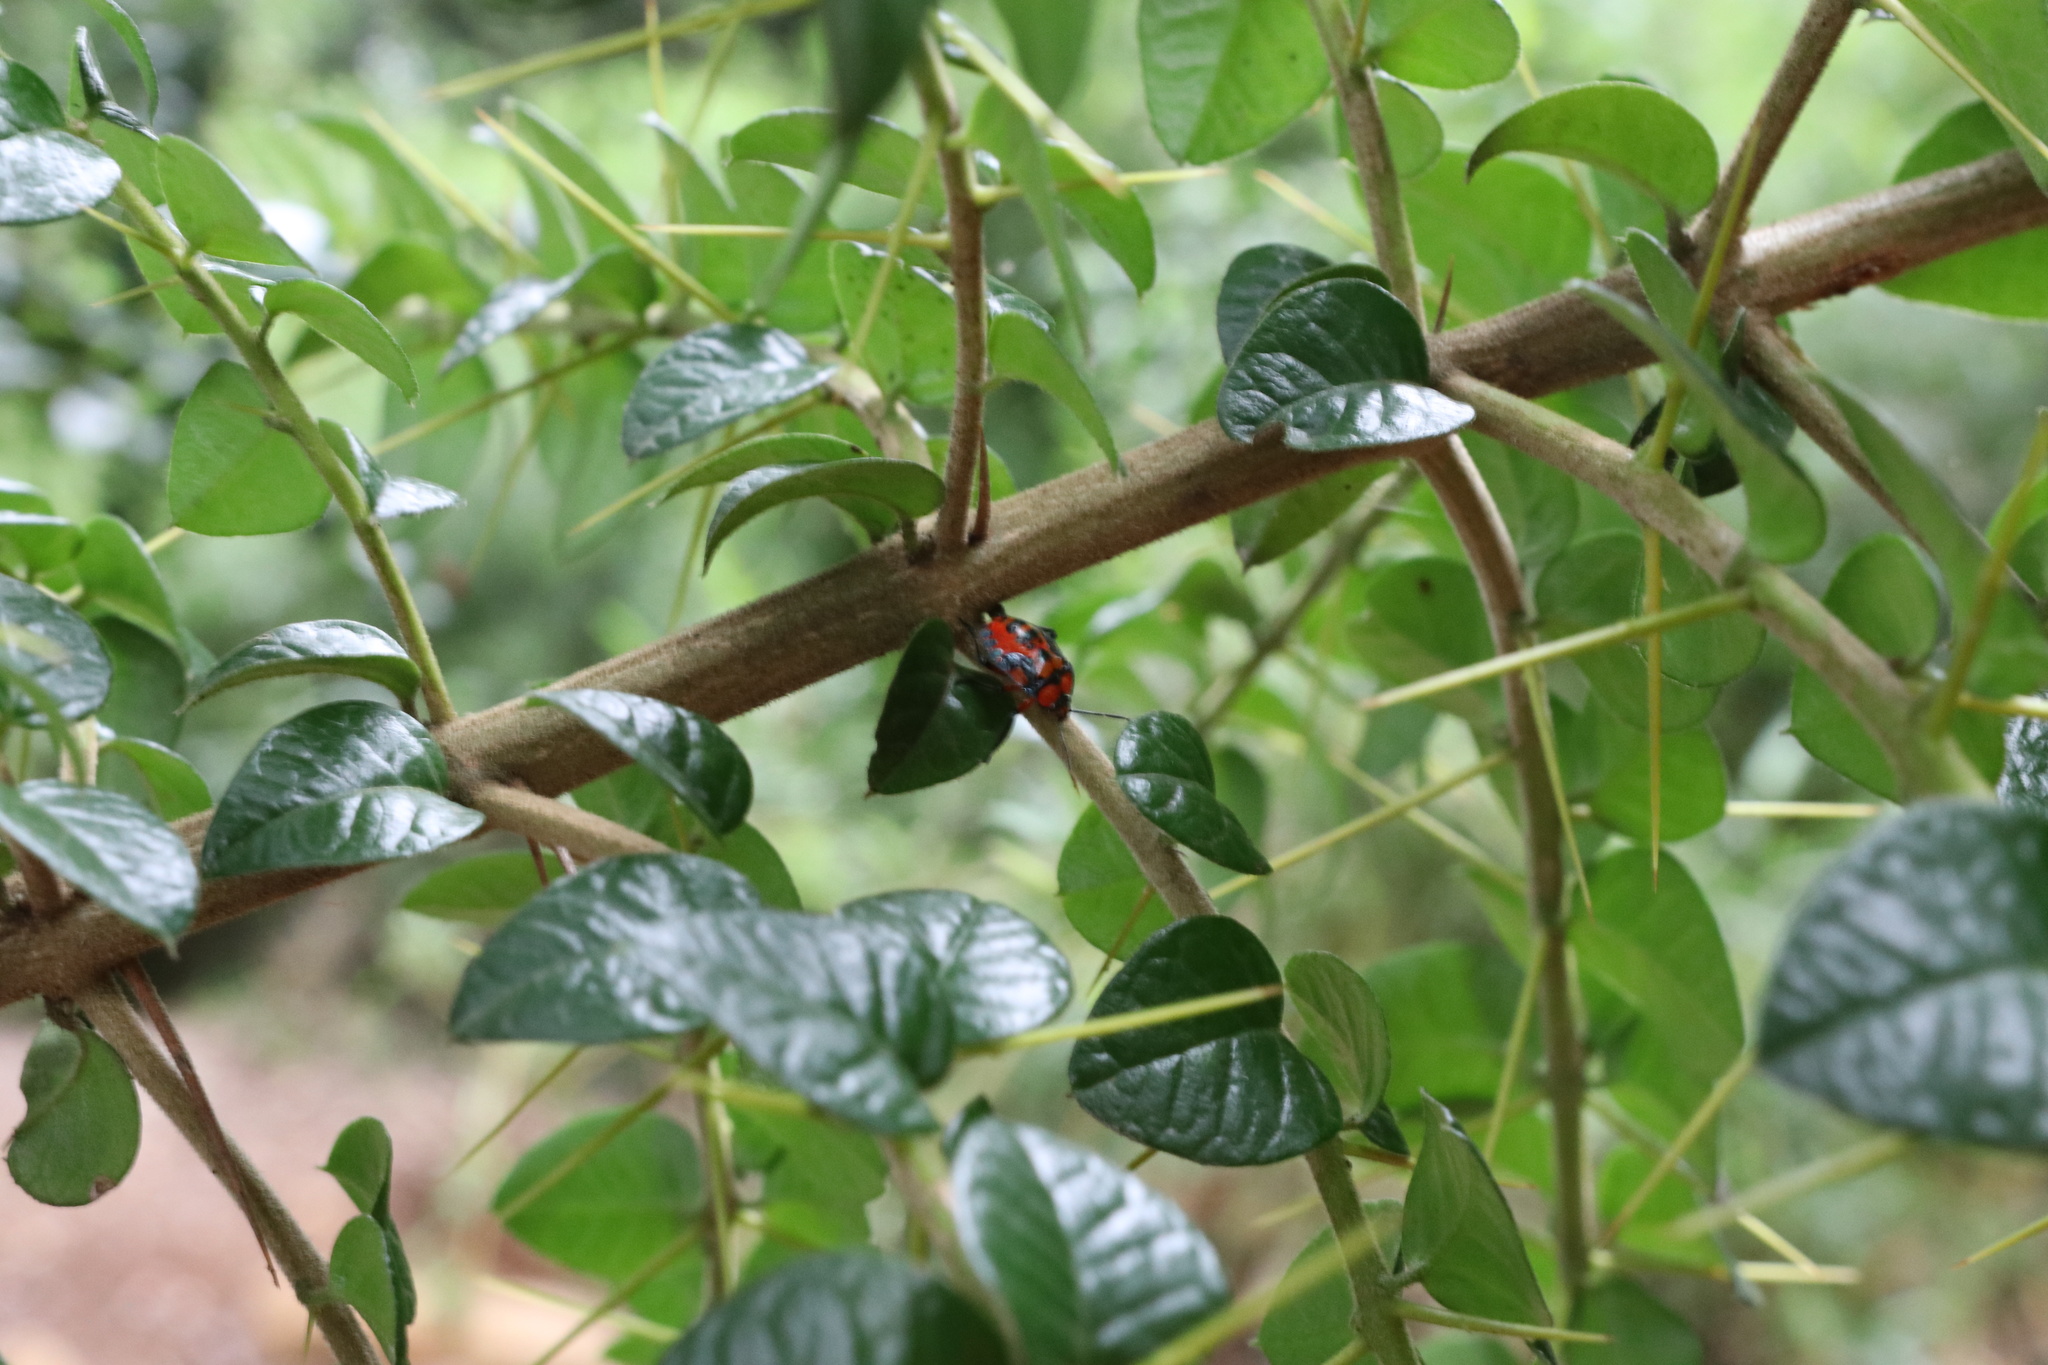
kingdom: Animalia
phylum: Arthropoda
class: Insecta
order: Hemiptera
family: Pentatomidae
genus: Brontocoris
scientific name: Brontocoris
